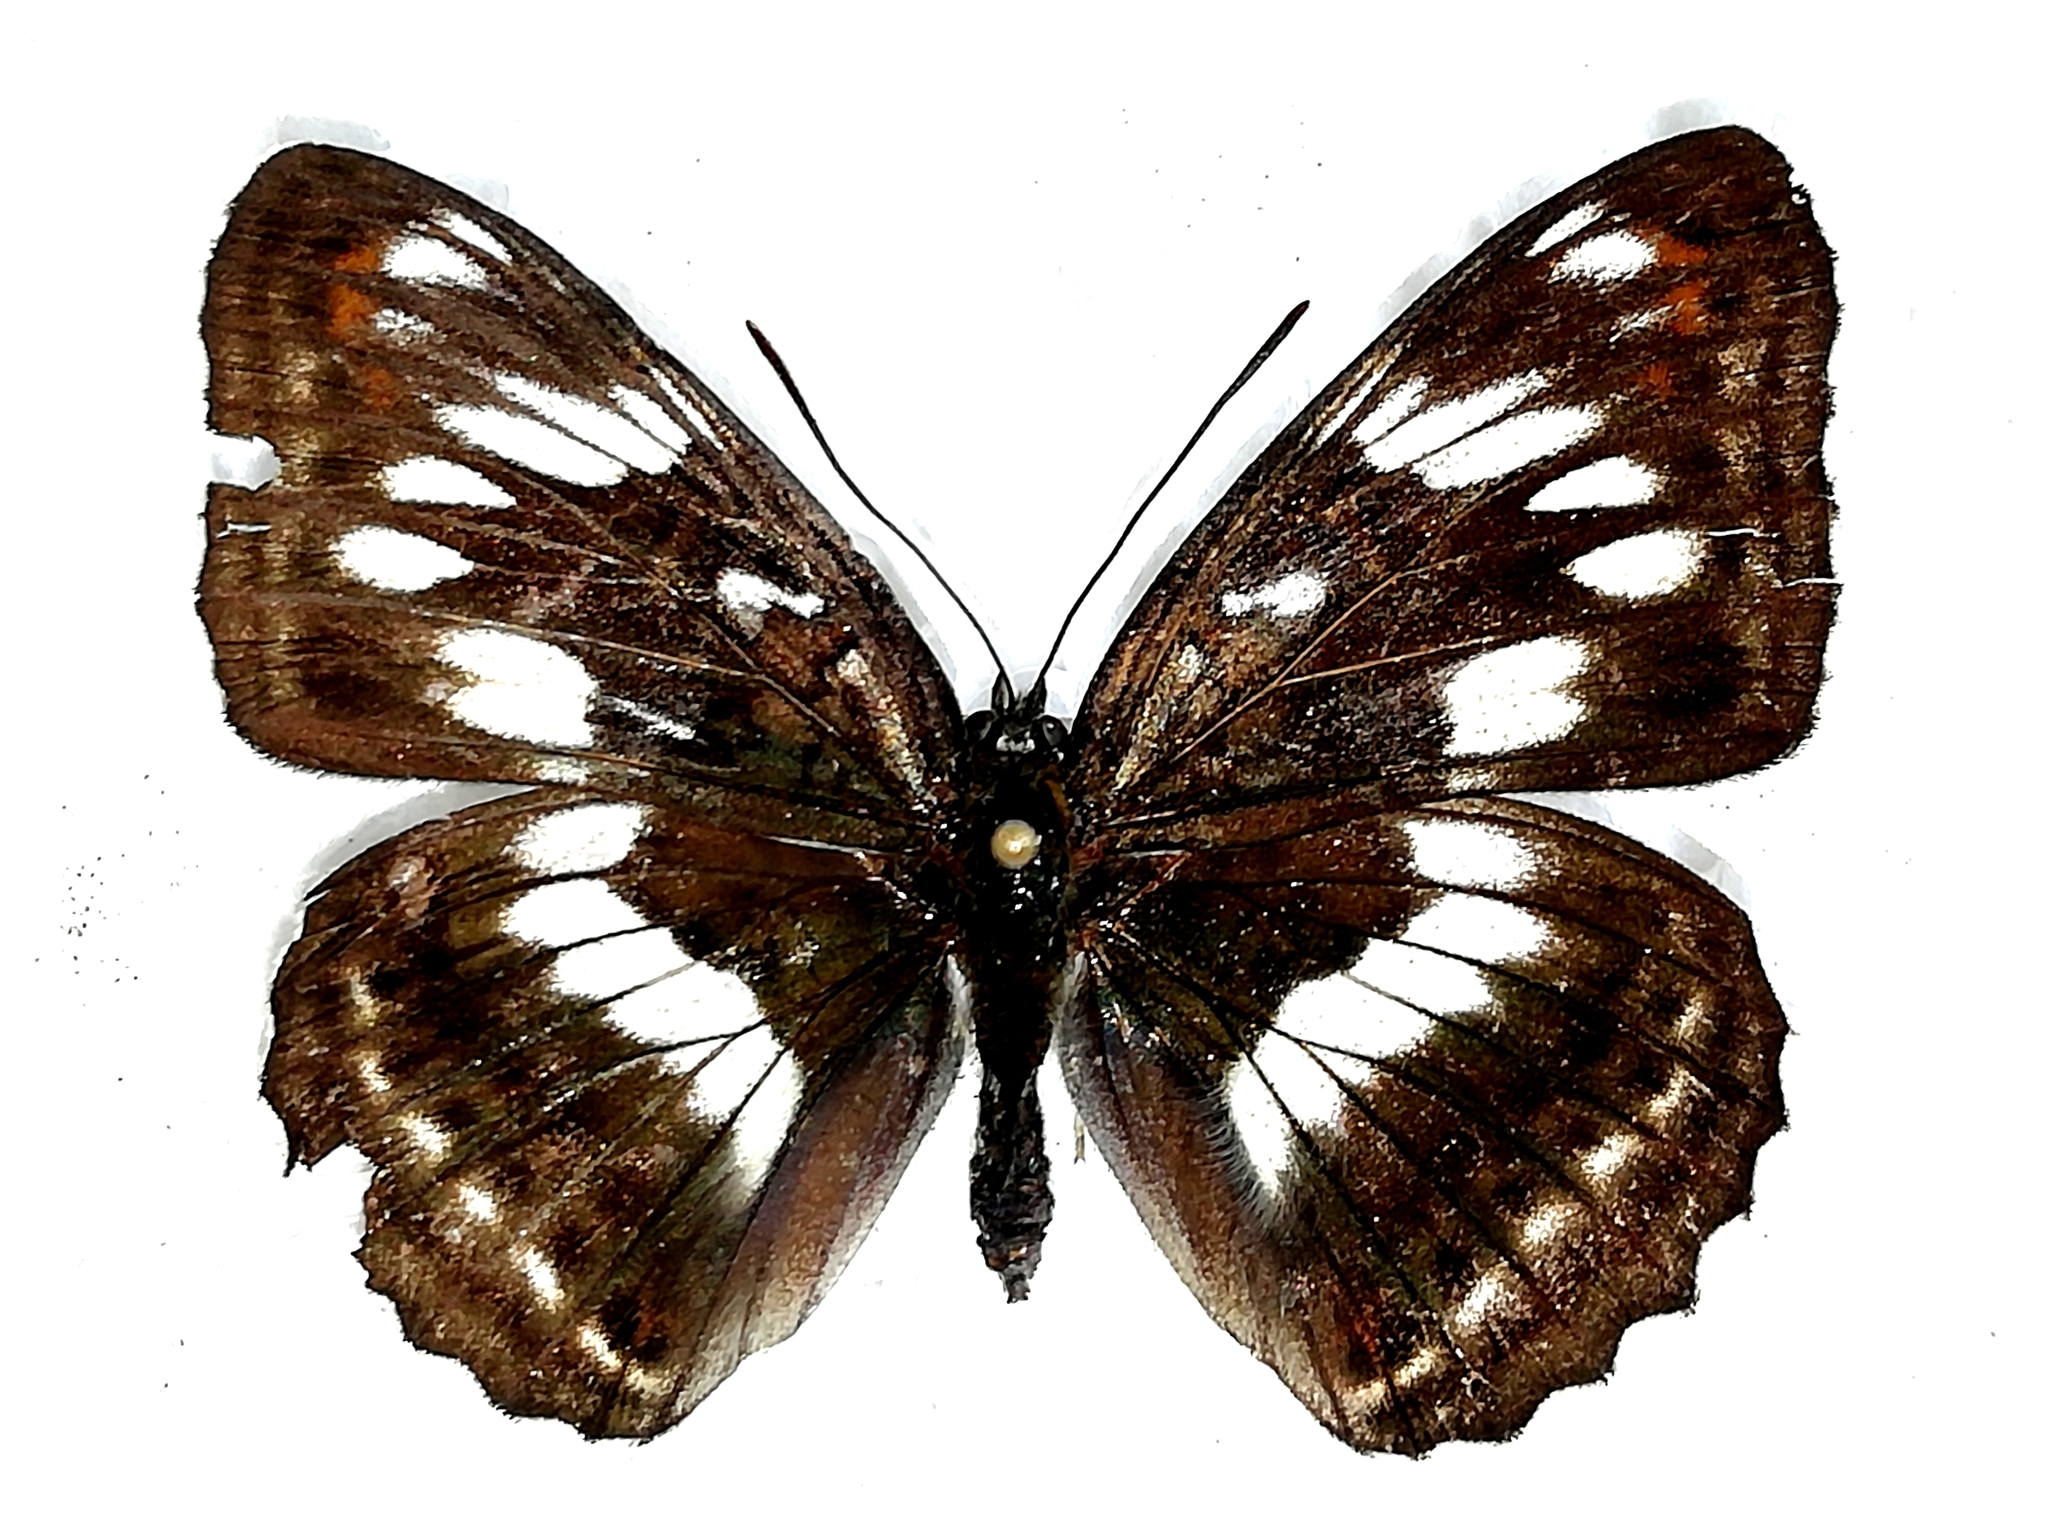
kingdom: Animalia
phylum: Arthropoda
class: Insecta
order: Lepidoptera
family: Nymphalidae
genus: Limenitis
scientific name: Limenitis sydyi
